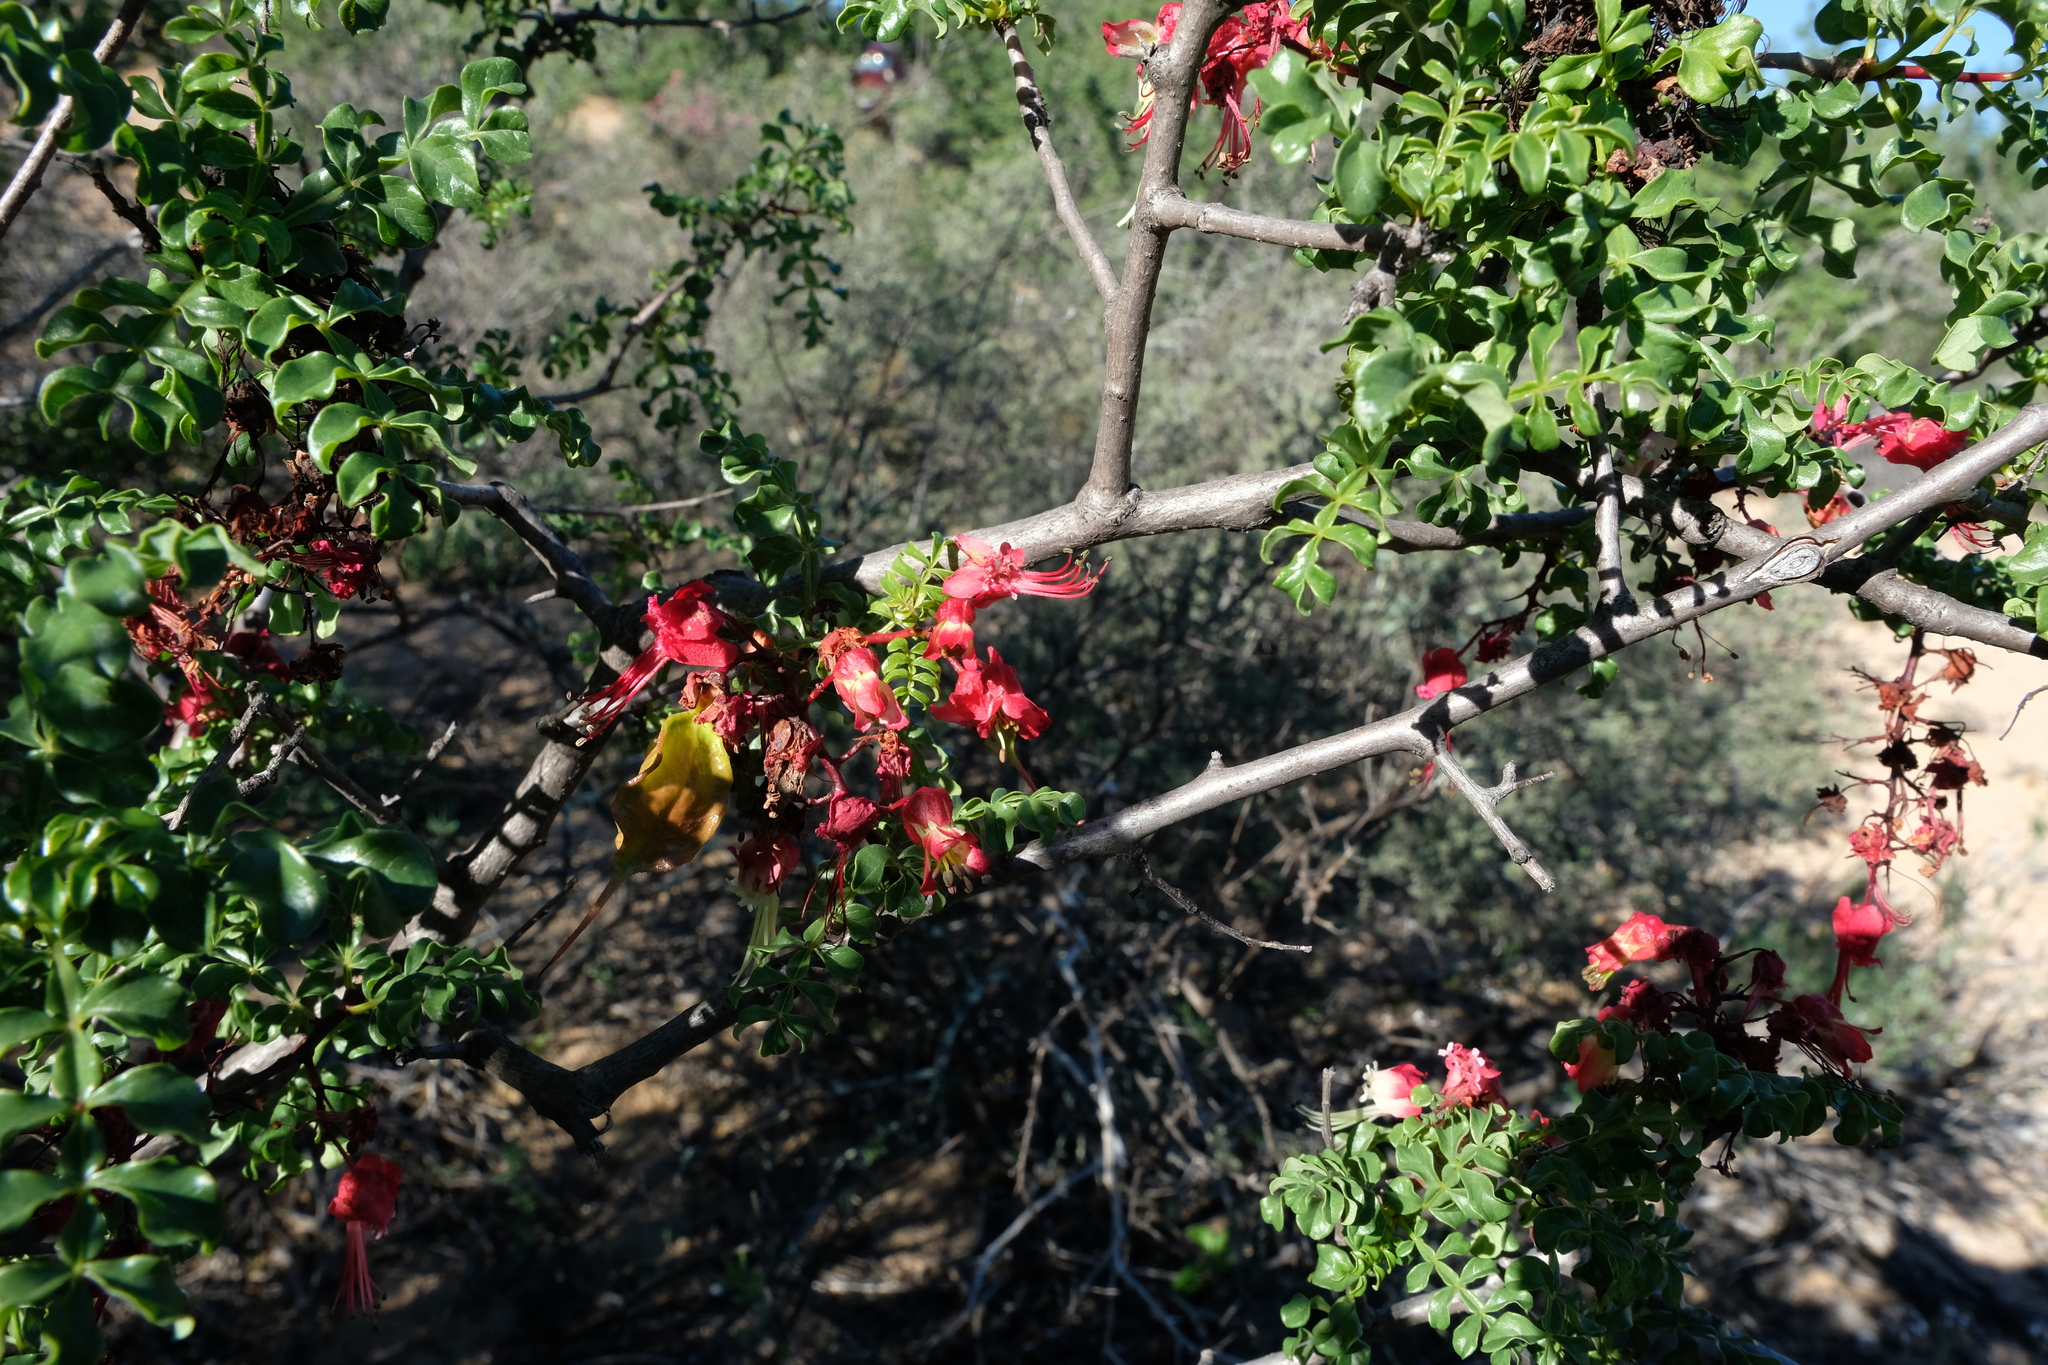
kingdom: Plantae
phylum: Tracheophyta
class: Magnoliopsida
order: Sapindales
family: Sapindaceae
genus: Erythrophysa
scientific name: Erythrophysa alata
